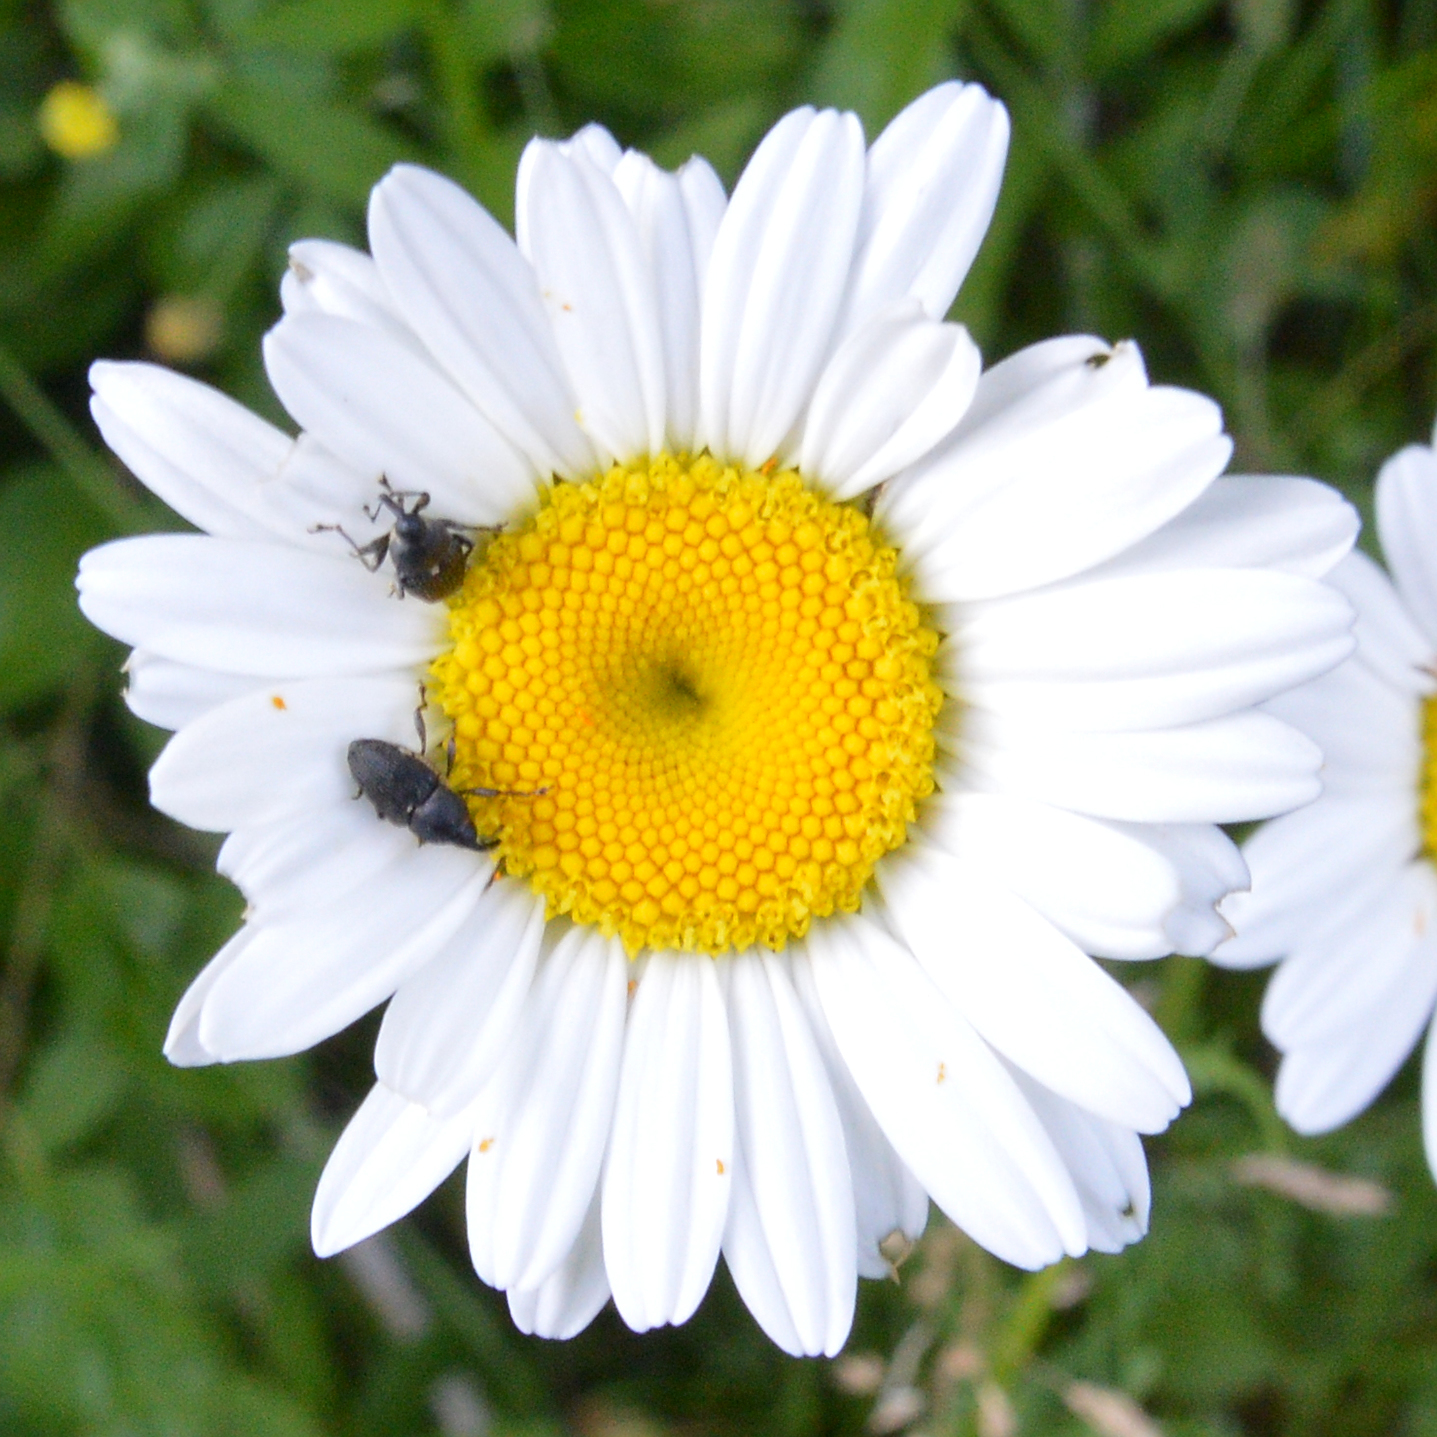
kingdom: Plantae
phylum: Tracheophyta
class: Magnoliopsida
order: Asterales
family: Asteraceae
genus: Leucanthemum
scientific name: Leucanthemum vulgare
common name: Oxeye daisy
